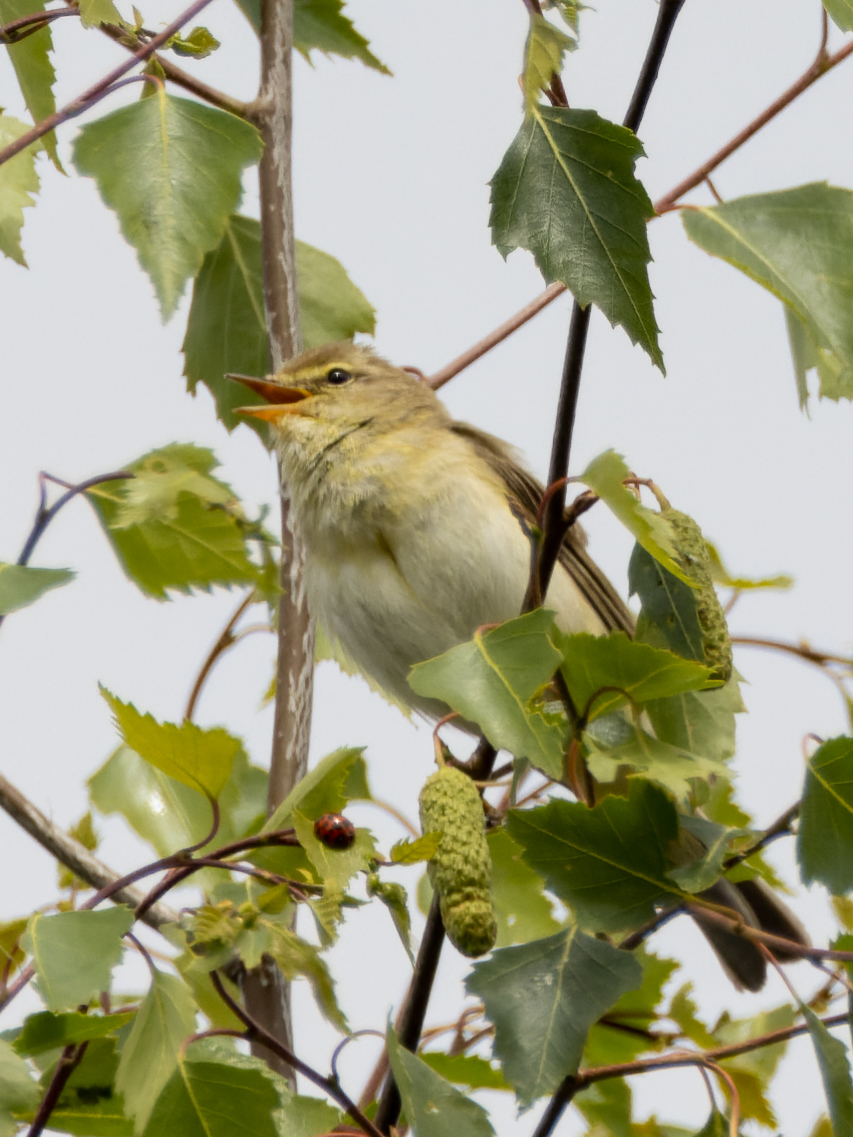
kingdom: Animalia
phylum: Chordata
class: Aves
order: Passeriformes
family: Phylloscopidae
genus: Phylloscopus
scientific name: Phylloscopus trochilus
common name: Willow warbler
